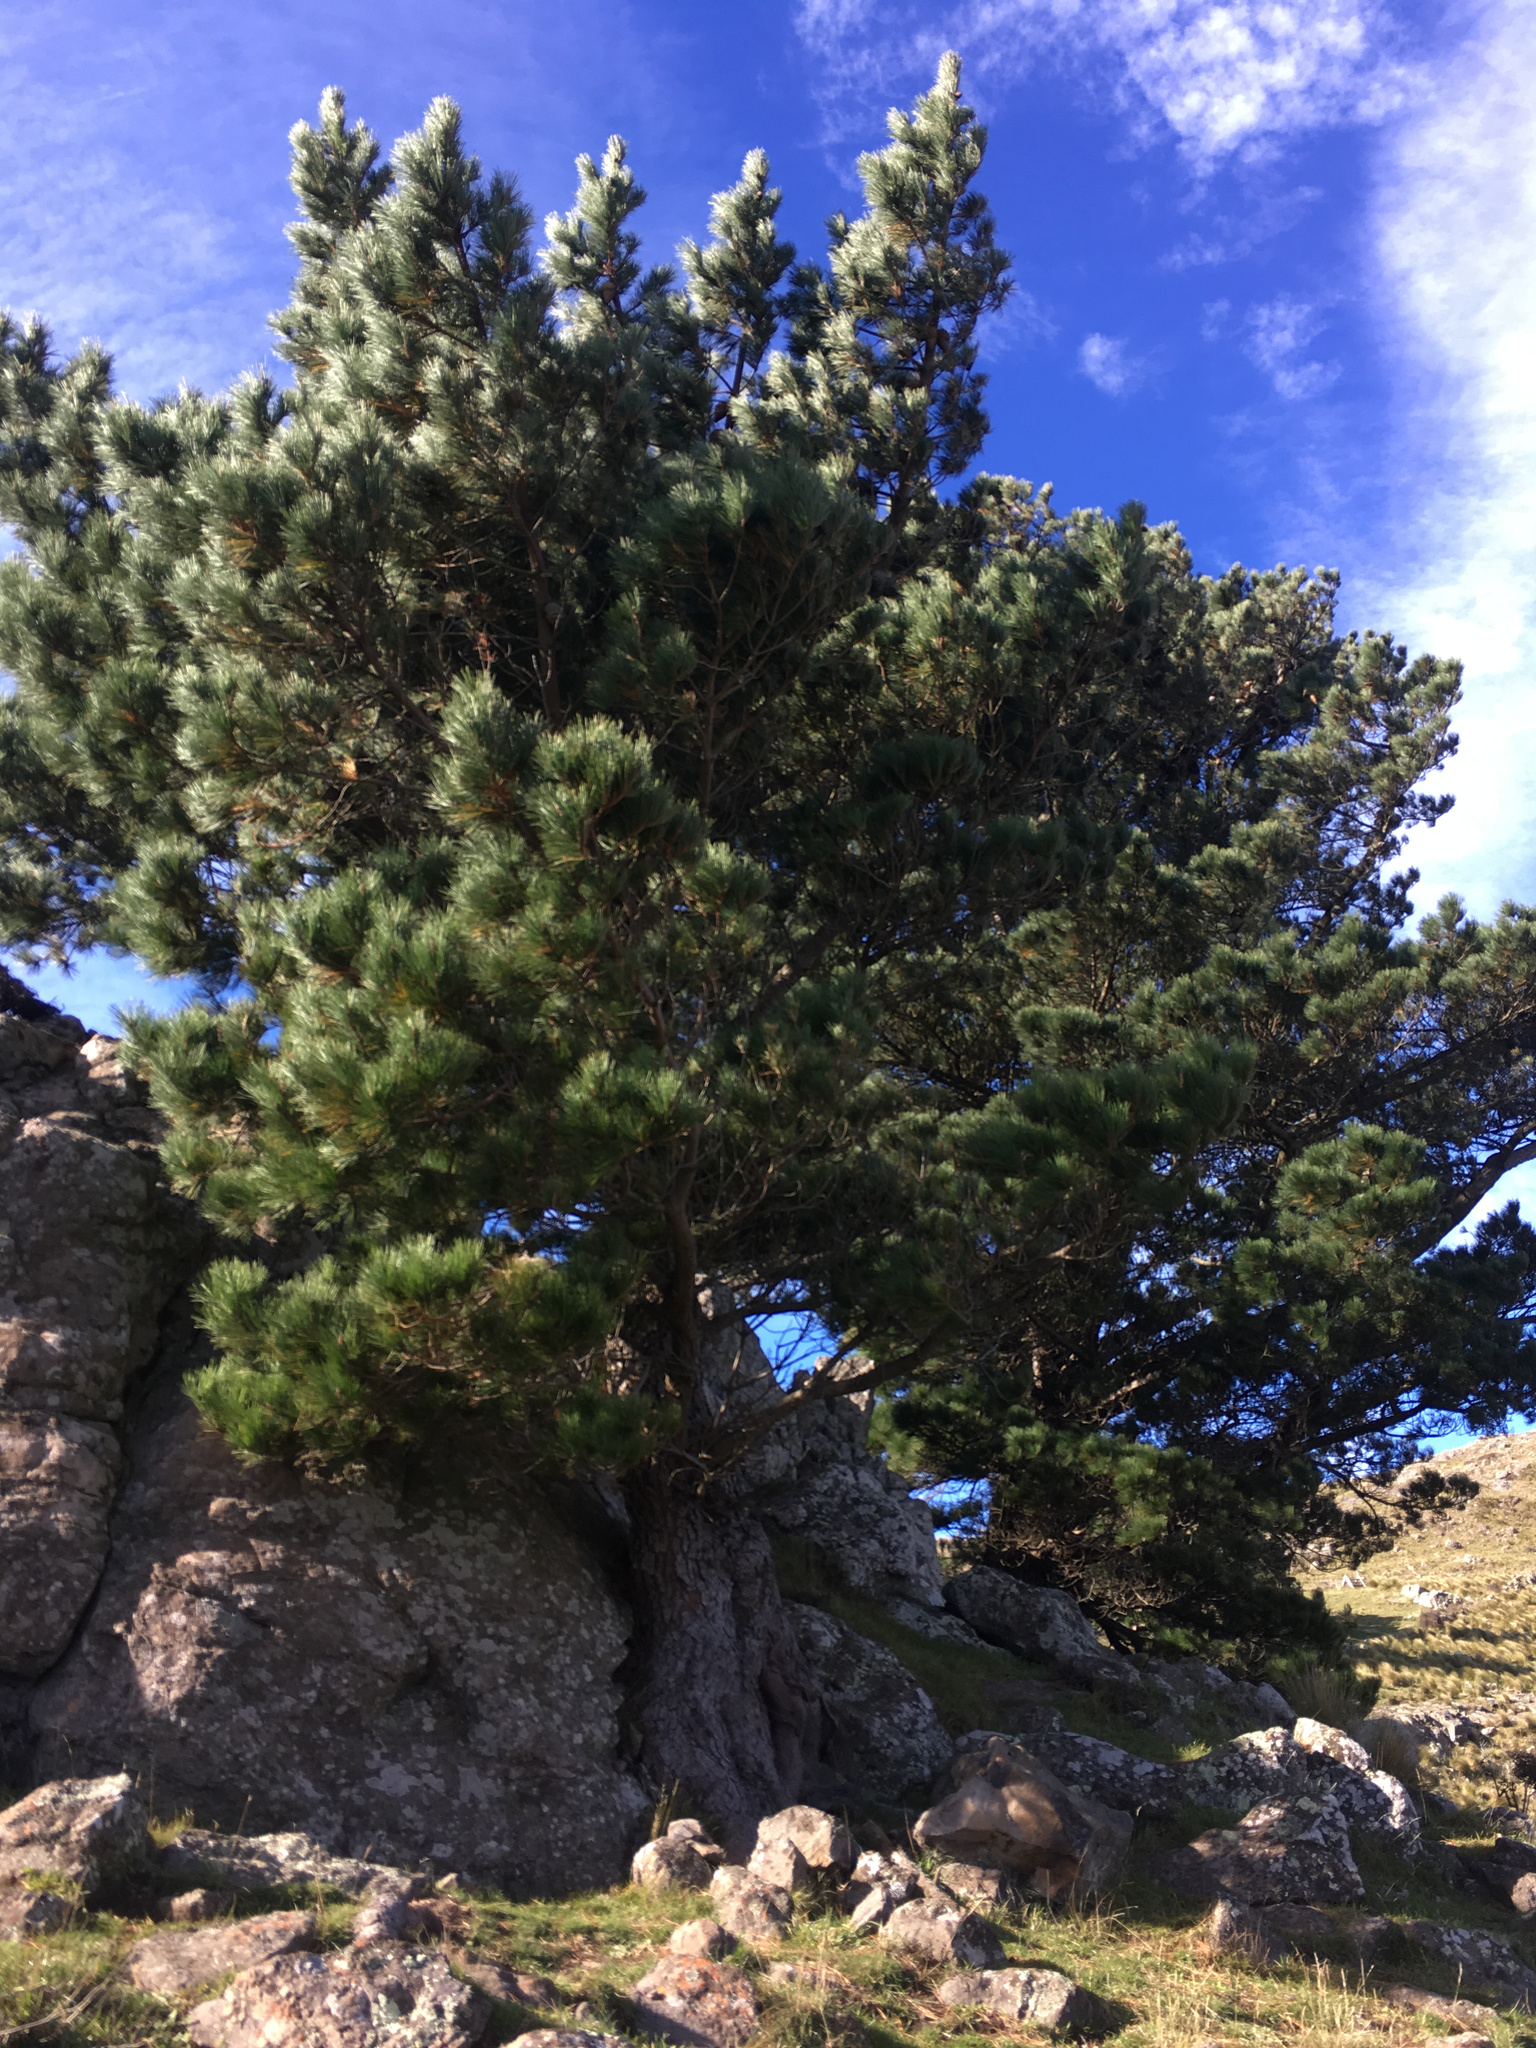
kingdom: Plantae
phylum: Tracheophyta
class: Pinopsida
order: Pinales
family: Pinaceae
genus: Pinus
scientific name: Pinus radiata
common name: Monterey pine
